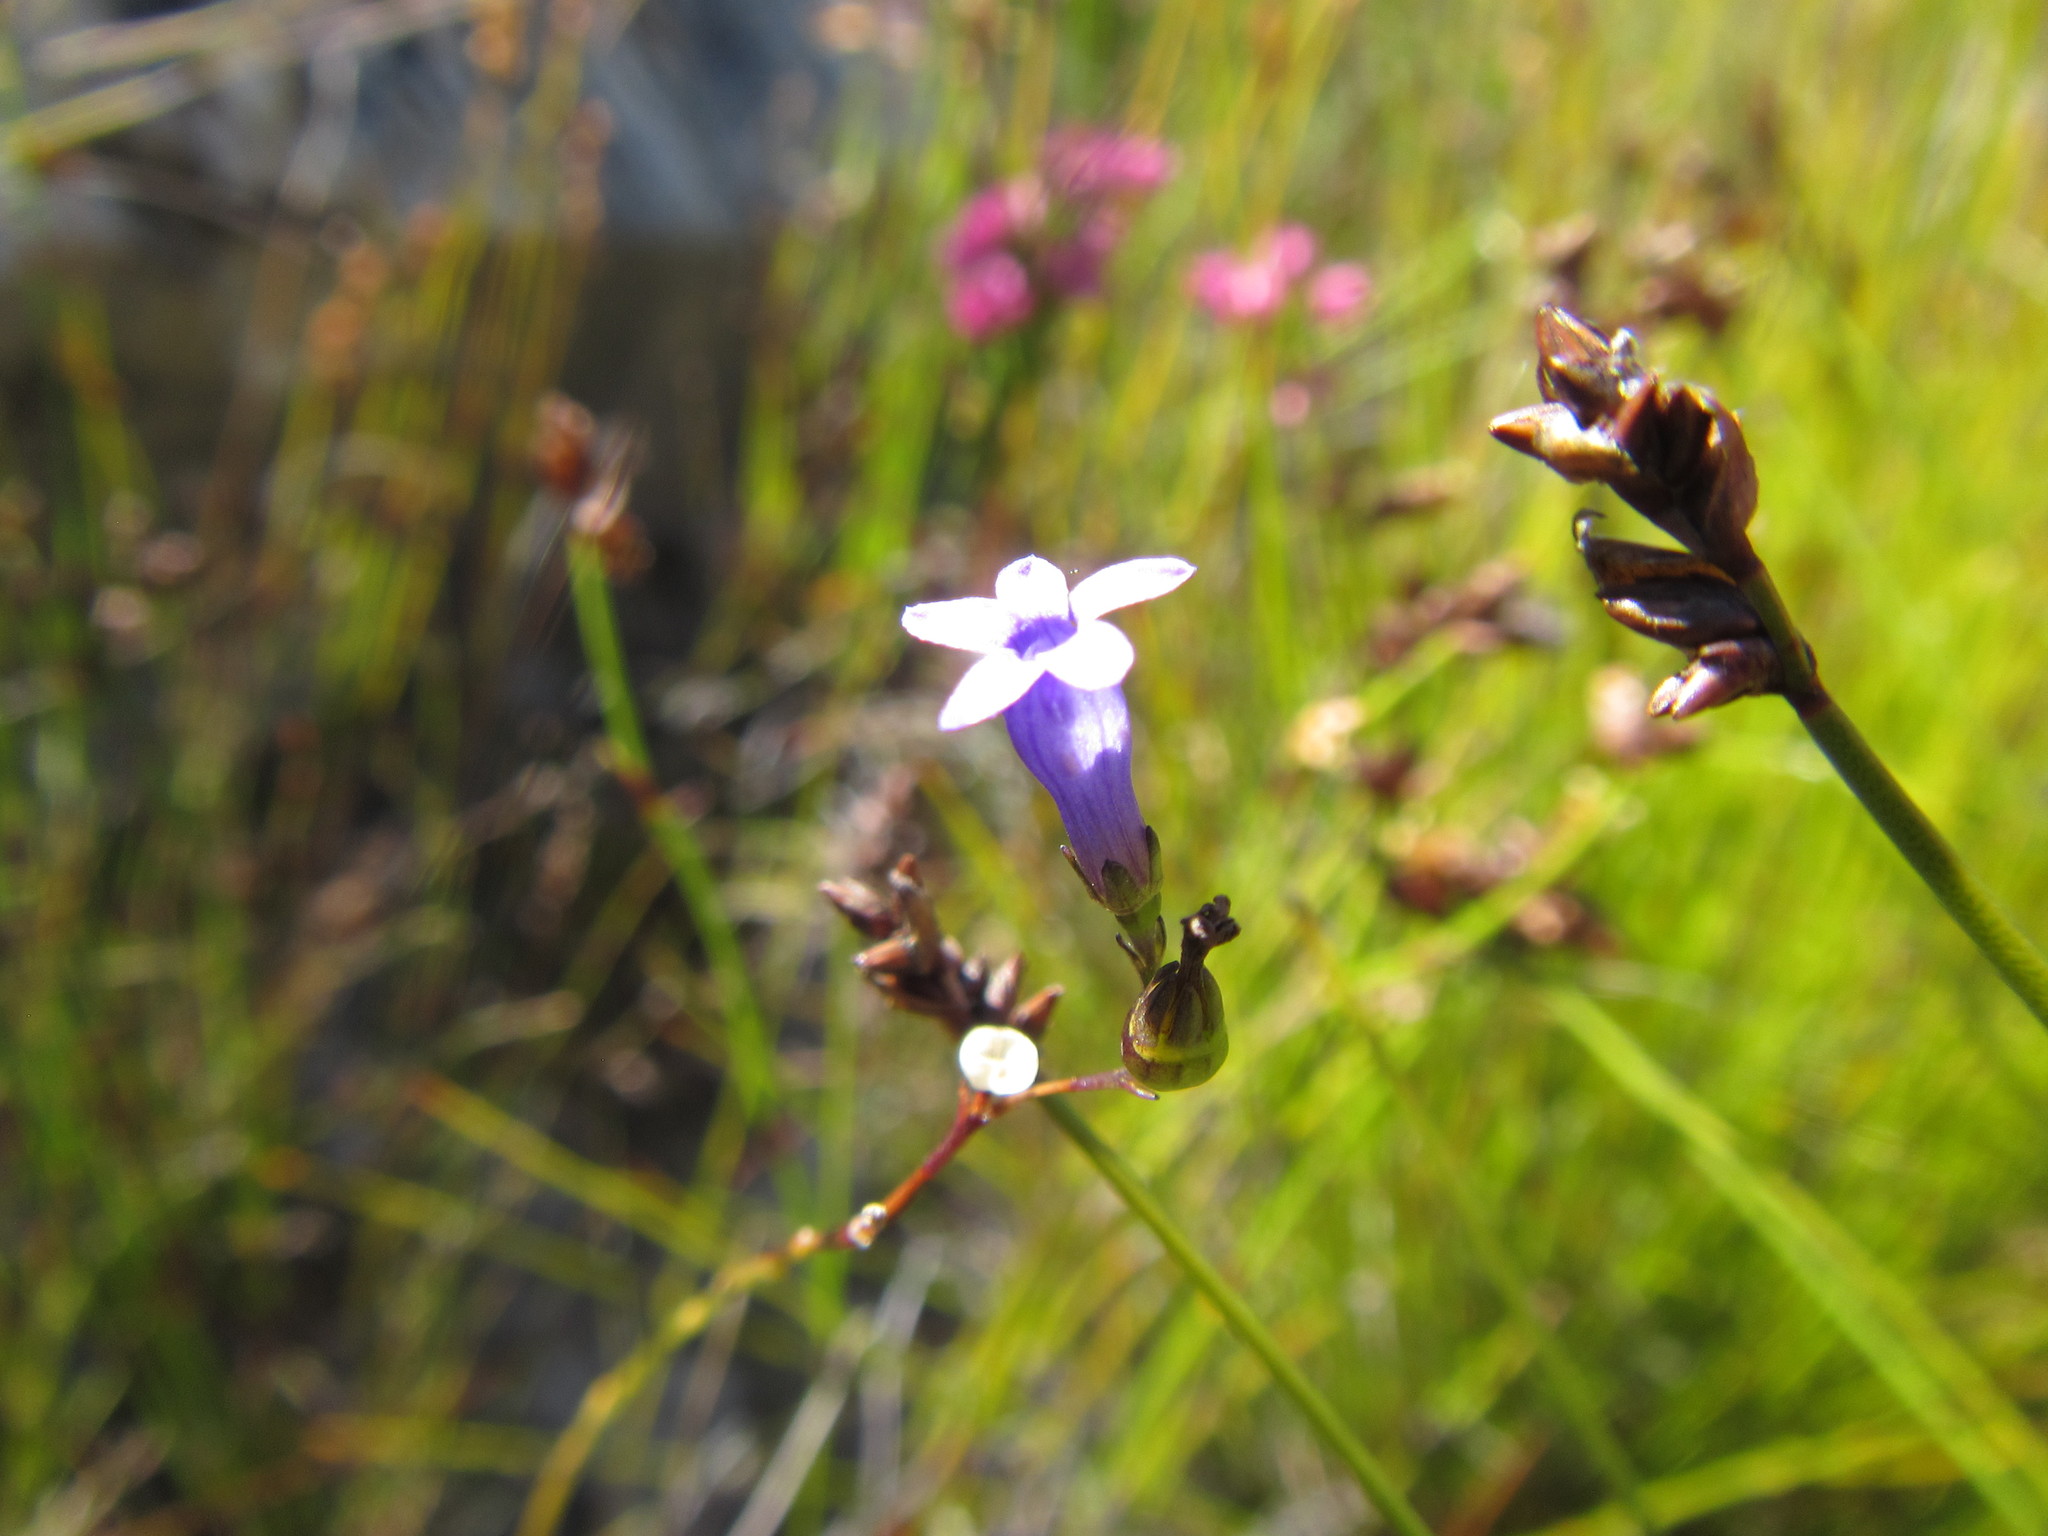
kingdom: Plantae
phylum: Tracheophyta
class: Magnoliopsida
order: Asterales
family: Campanulaceae
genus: Siphocodon
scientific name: Siphocodon spartioides
